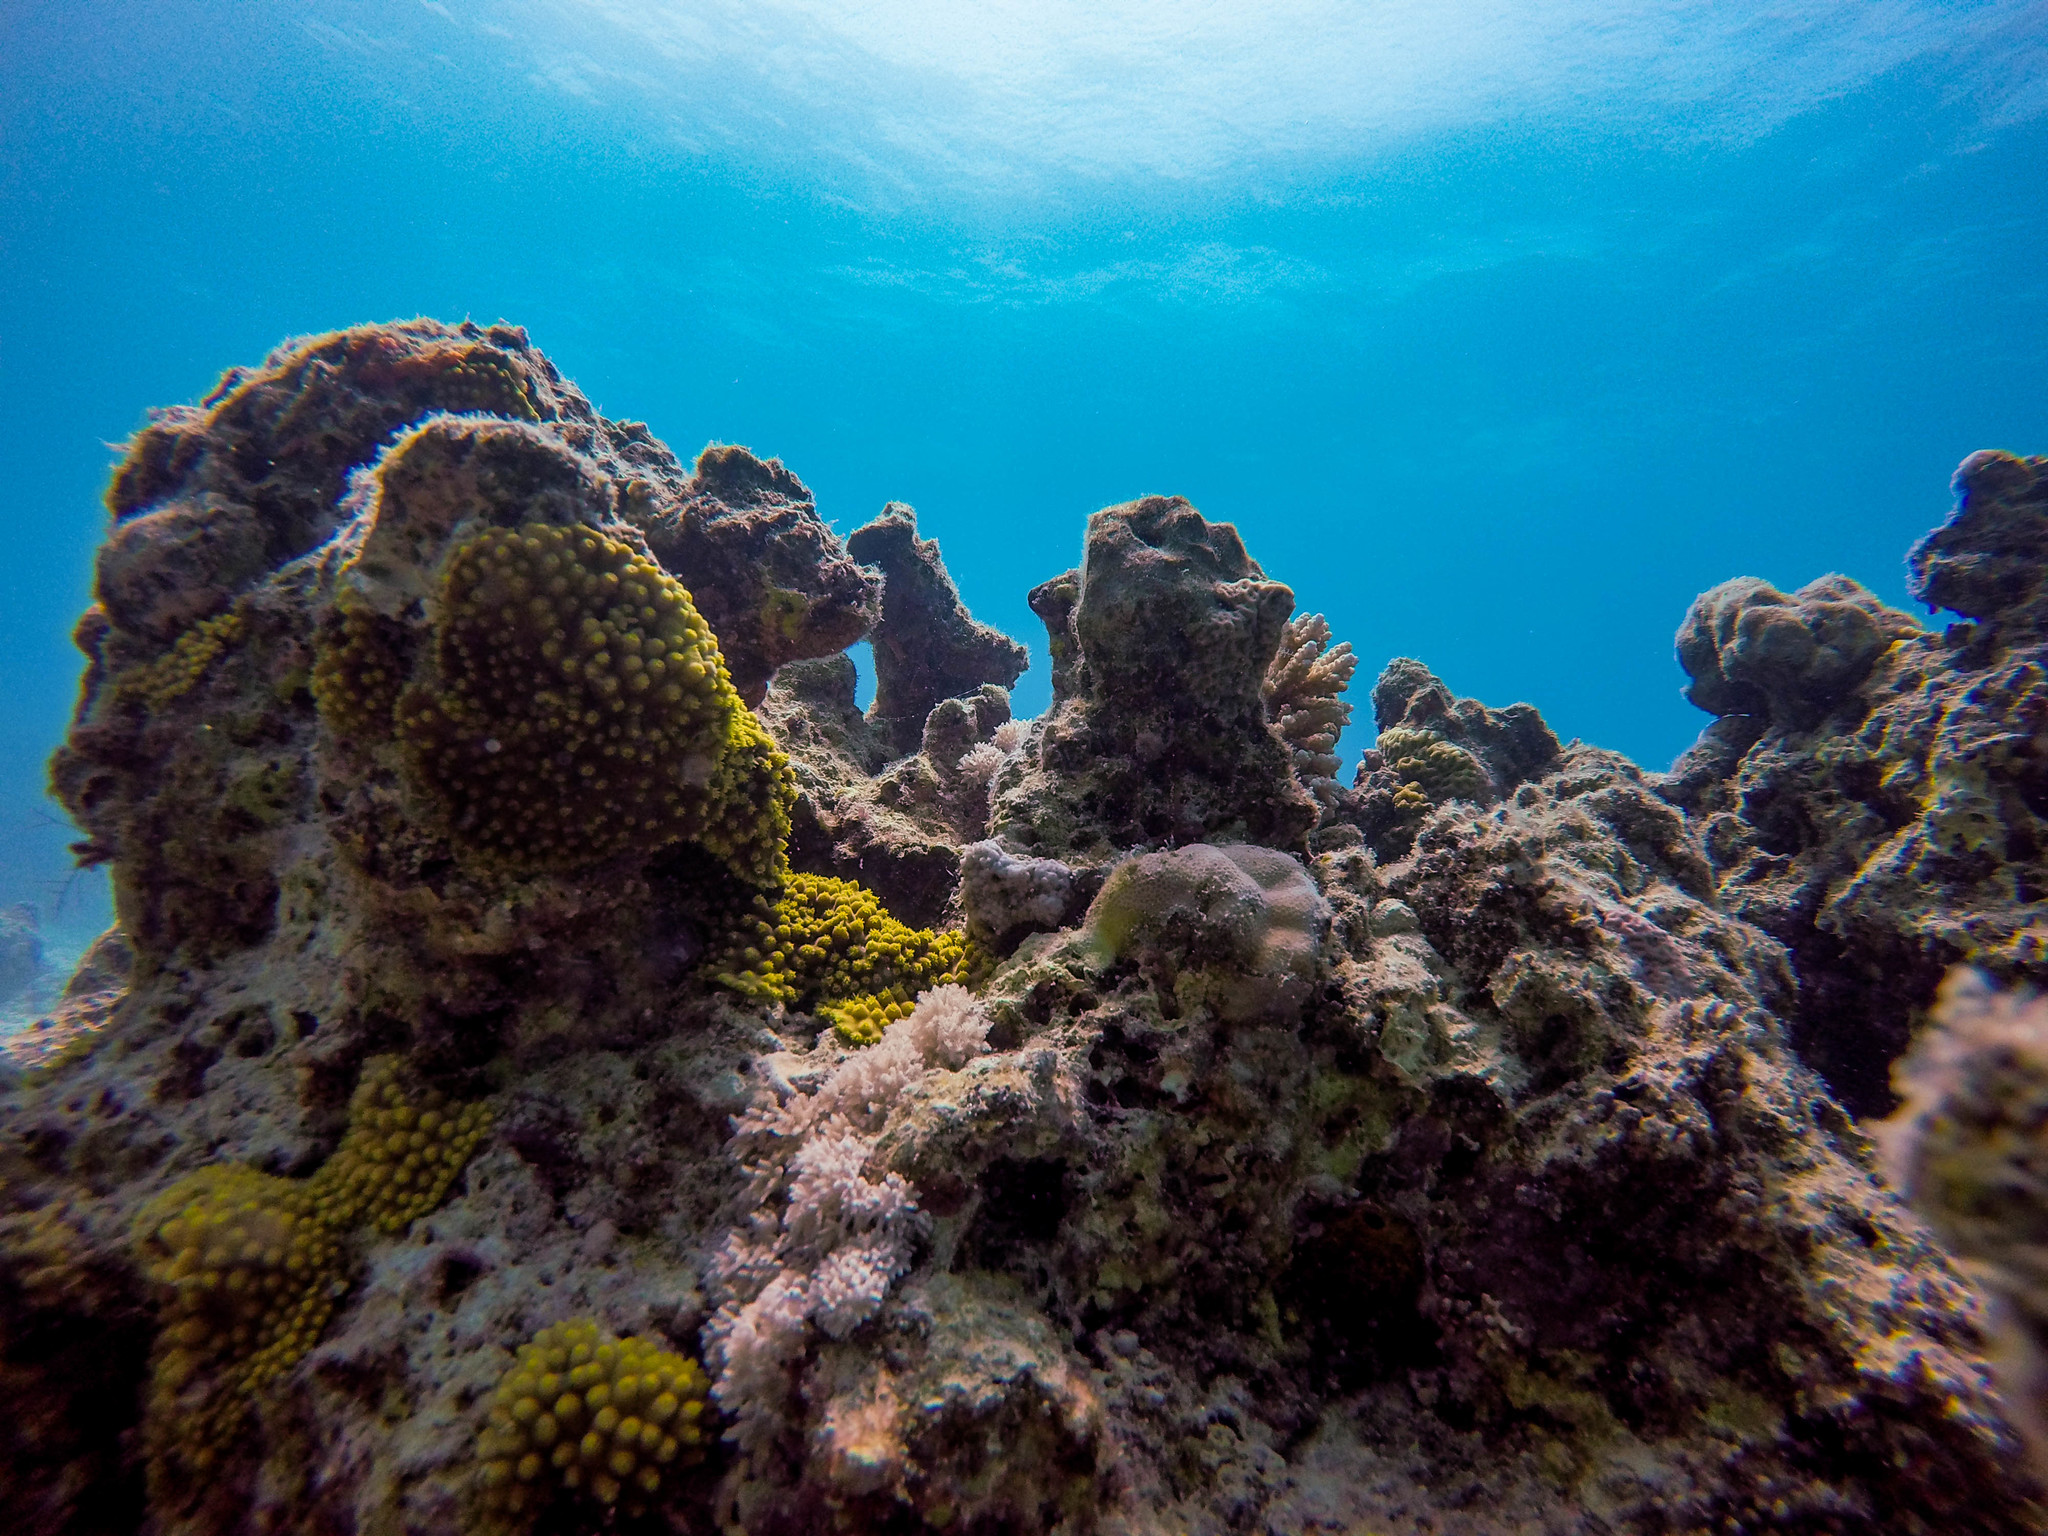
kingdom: Animalia
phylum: Cnidaria
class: Anthozoa
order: Scleractinia
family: Dendrophylliidae
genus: Turbinaria
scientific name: Turbinaria stellulata
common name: Disc coral
